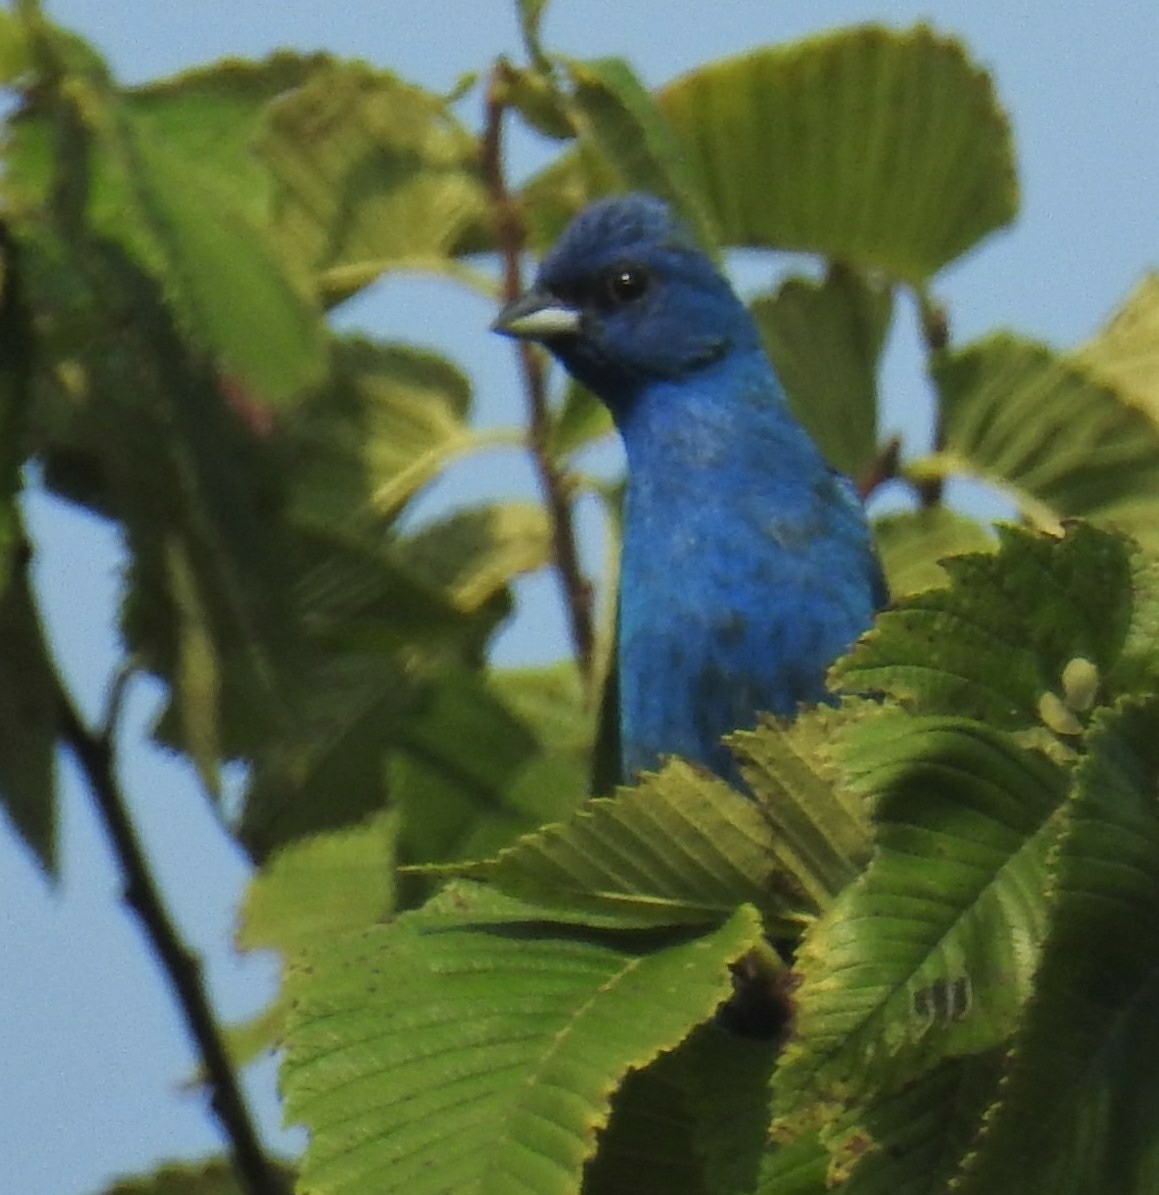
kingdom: Animalia
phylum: Chordata
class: Aves
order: Passeriformes
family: Cardinalidae
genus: Passerina
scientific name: Passerina cyanea
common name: Indigo bunting
